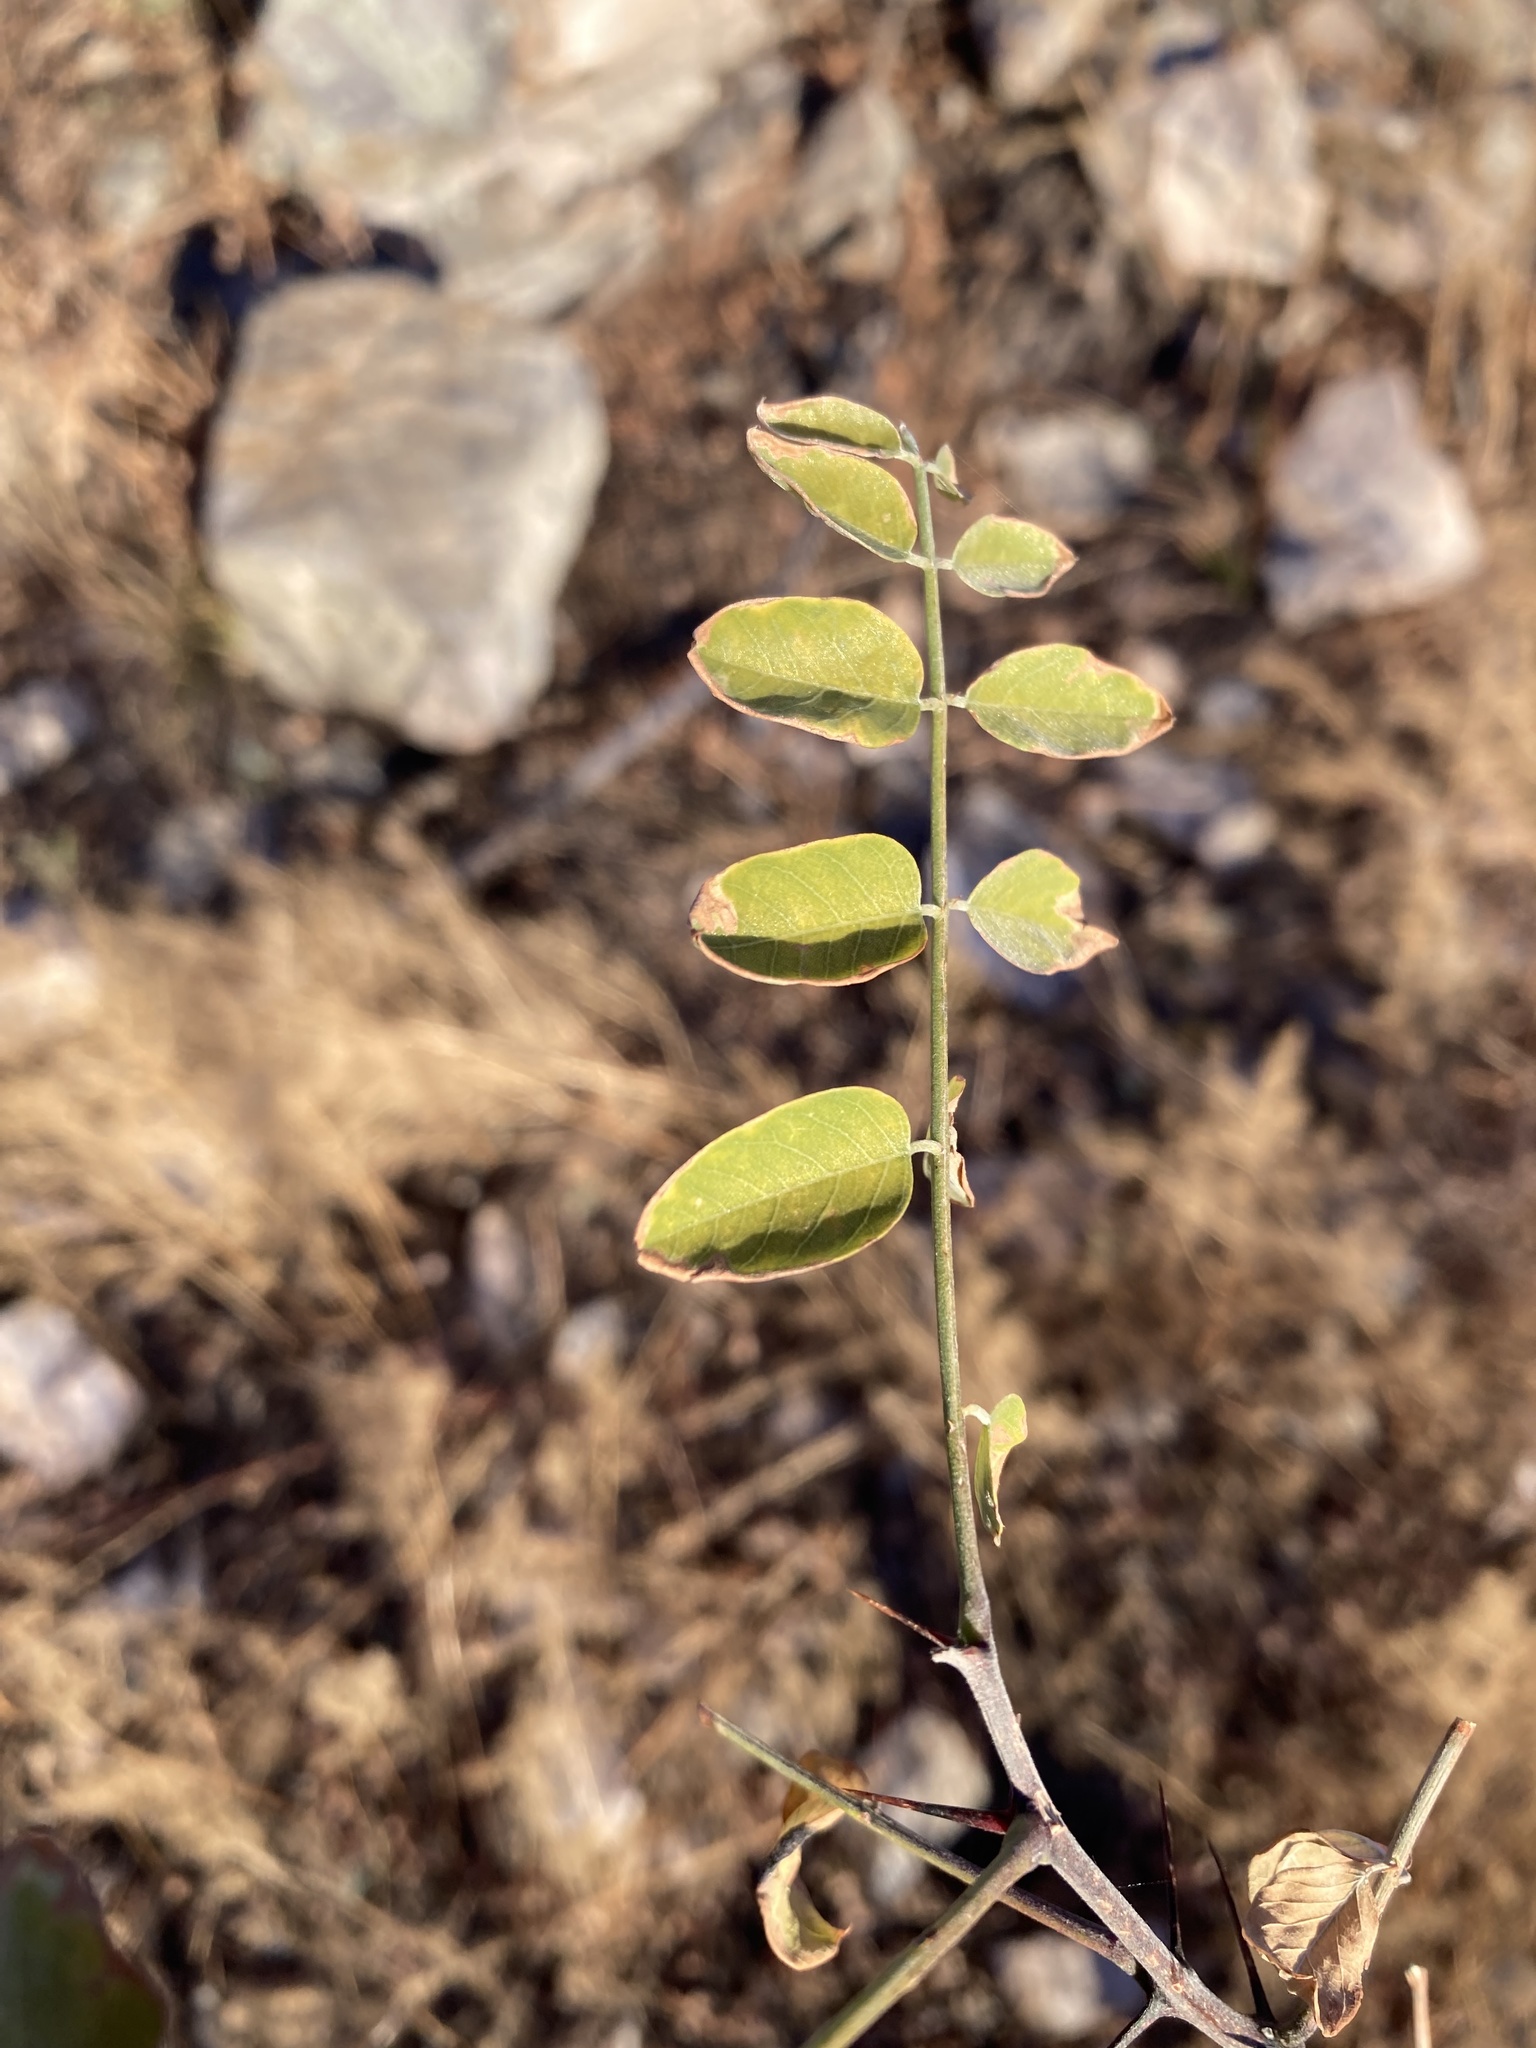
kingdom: Plantae
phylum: Tracheophyta
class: Magnoliopsida
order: Fabales
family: Fabaceae
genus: Robinia
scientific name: Robinia neomexicana
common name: New mexico locust
